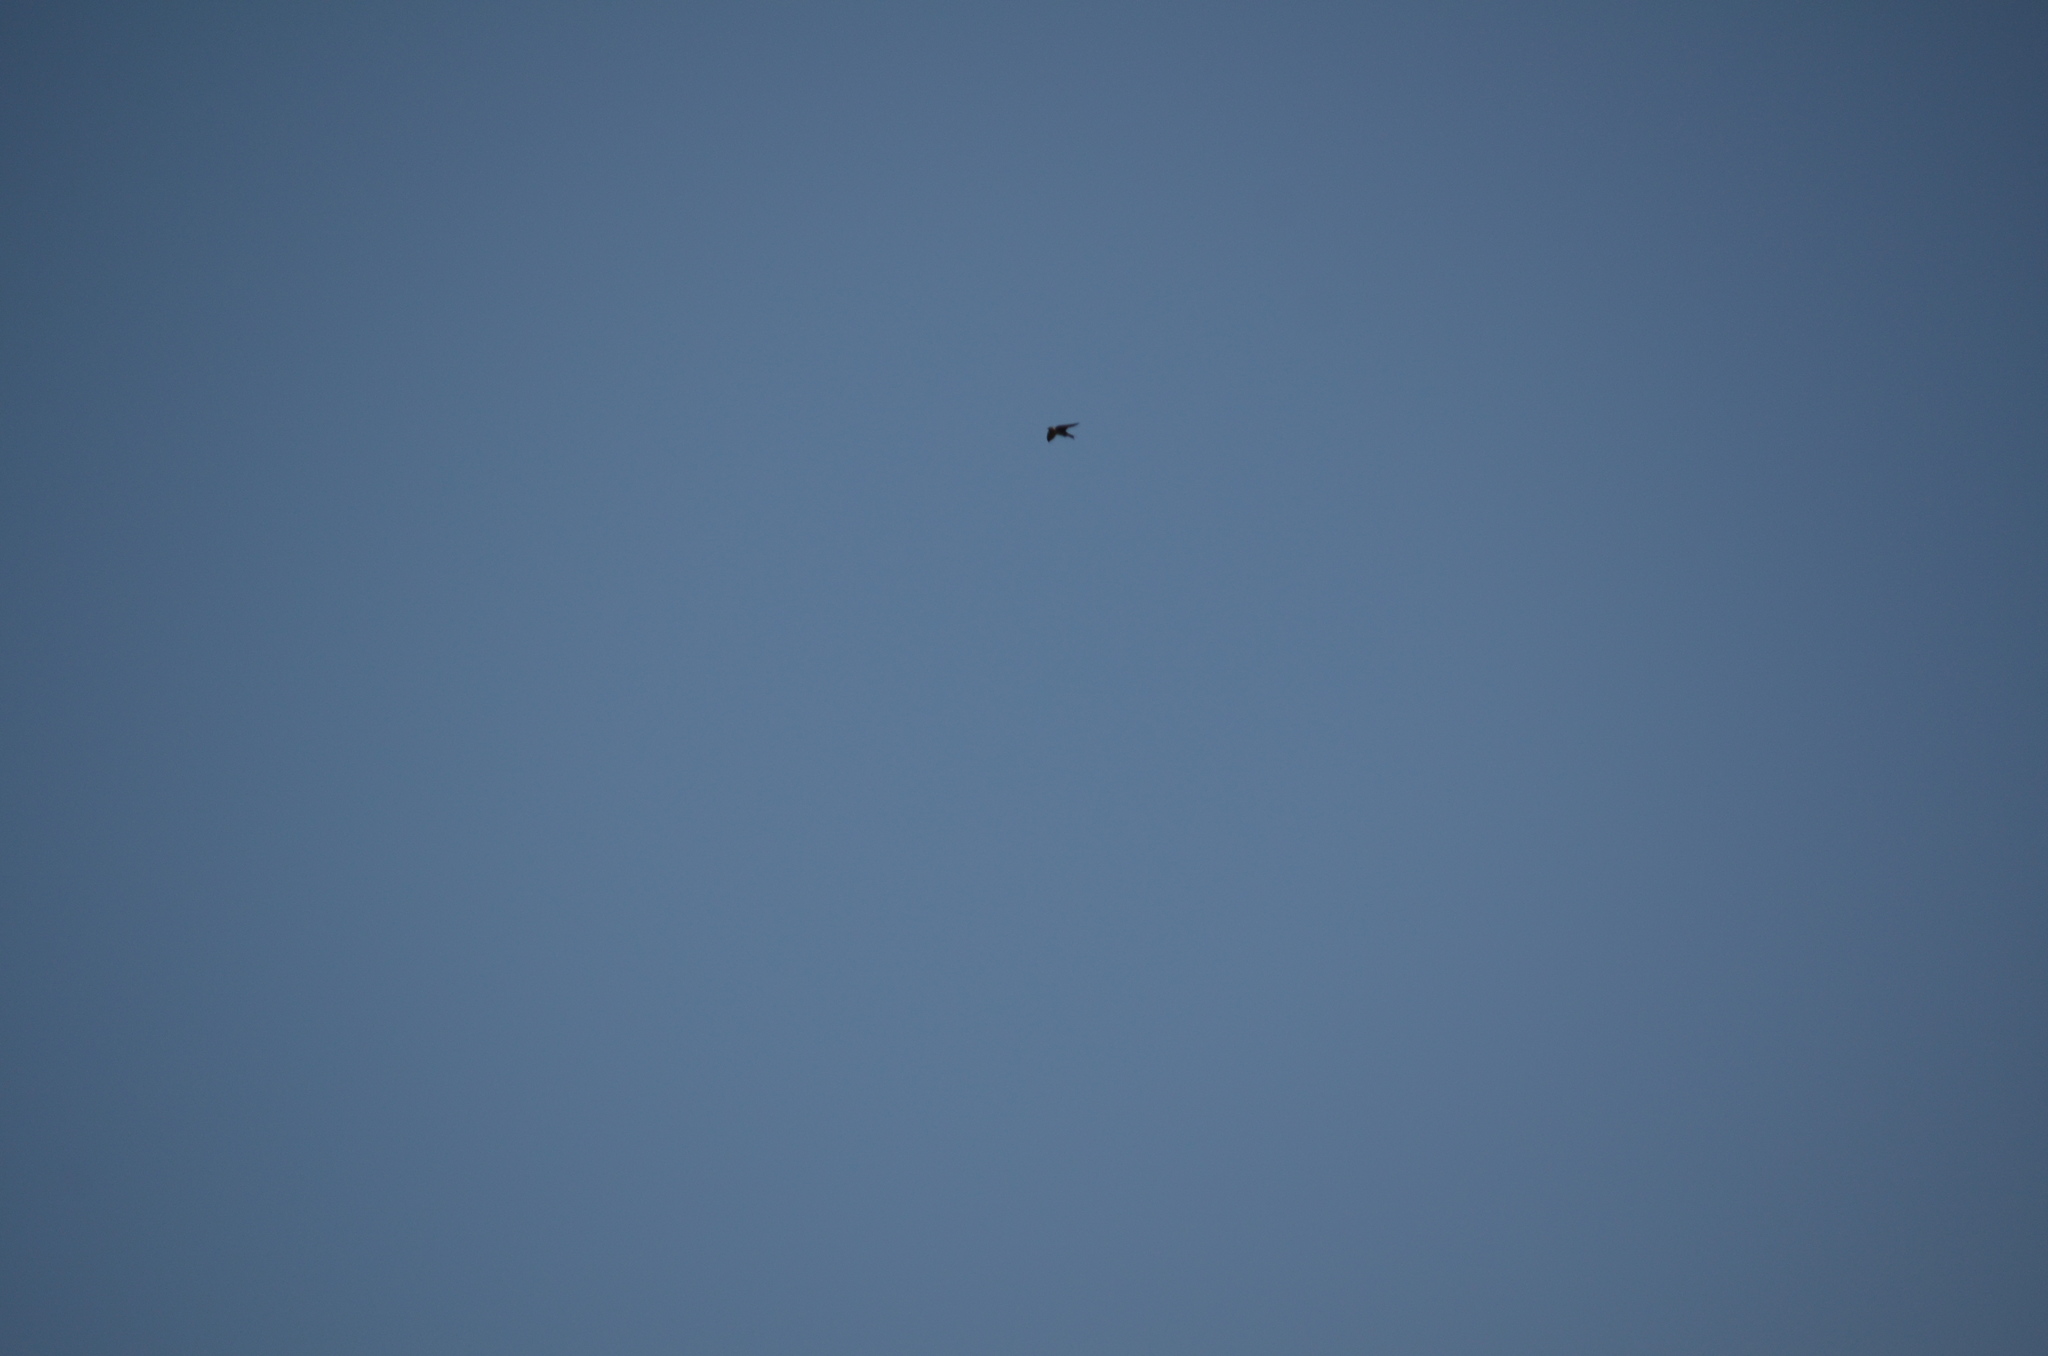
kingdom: Animalia
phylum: Chordata
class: Aves
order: Passeriformes
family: Hirundinidae
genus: Tachycineta
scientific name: Tachycineta bicolor
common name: Tree swallow
